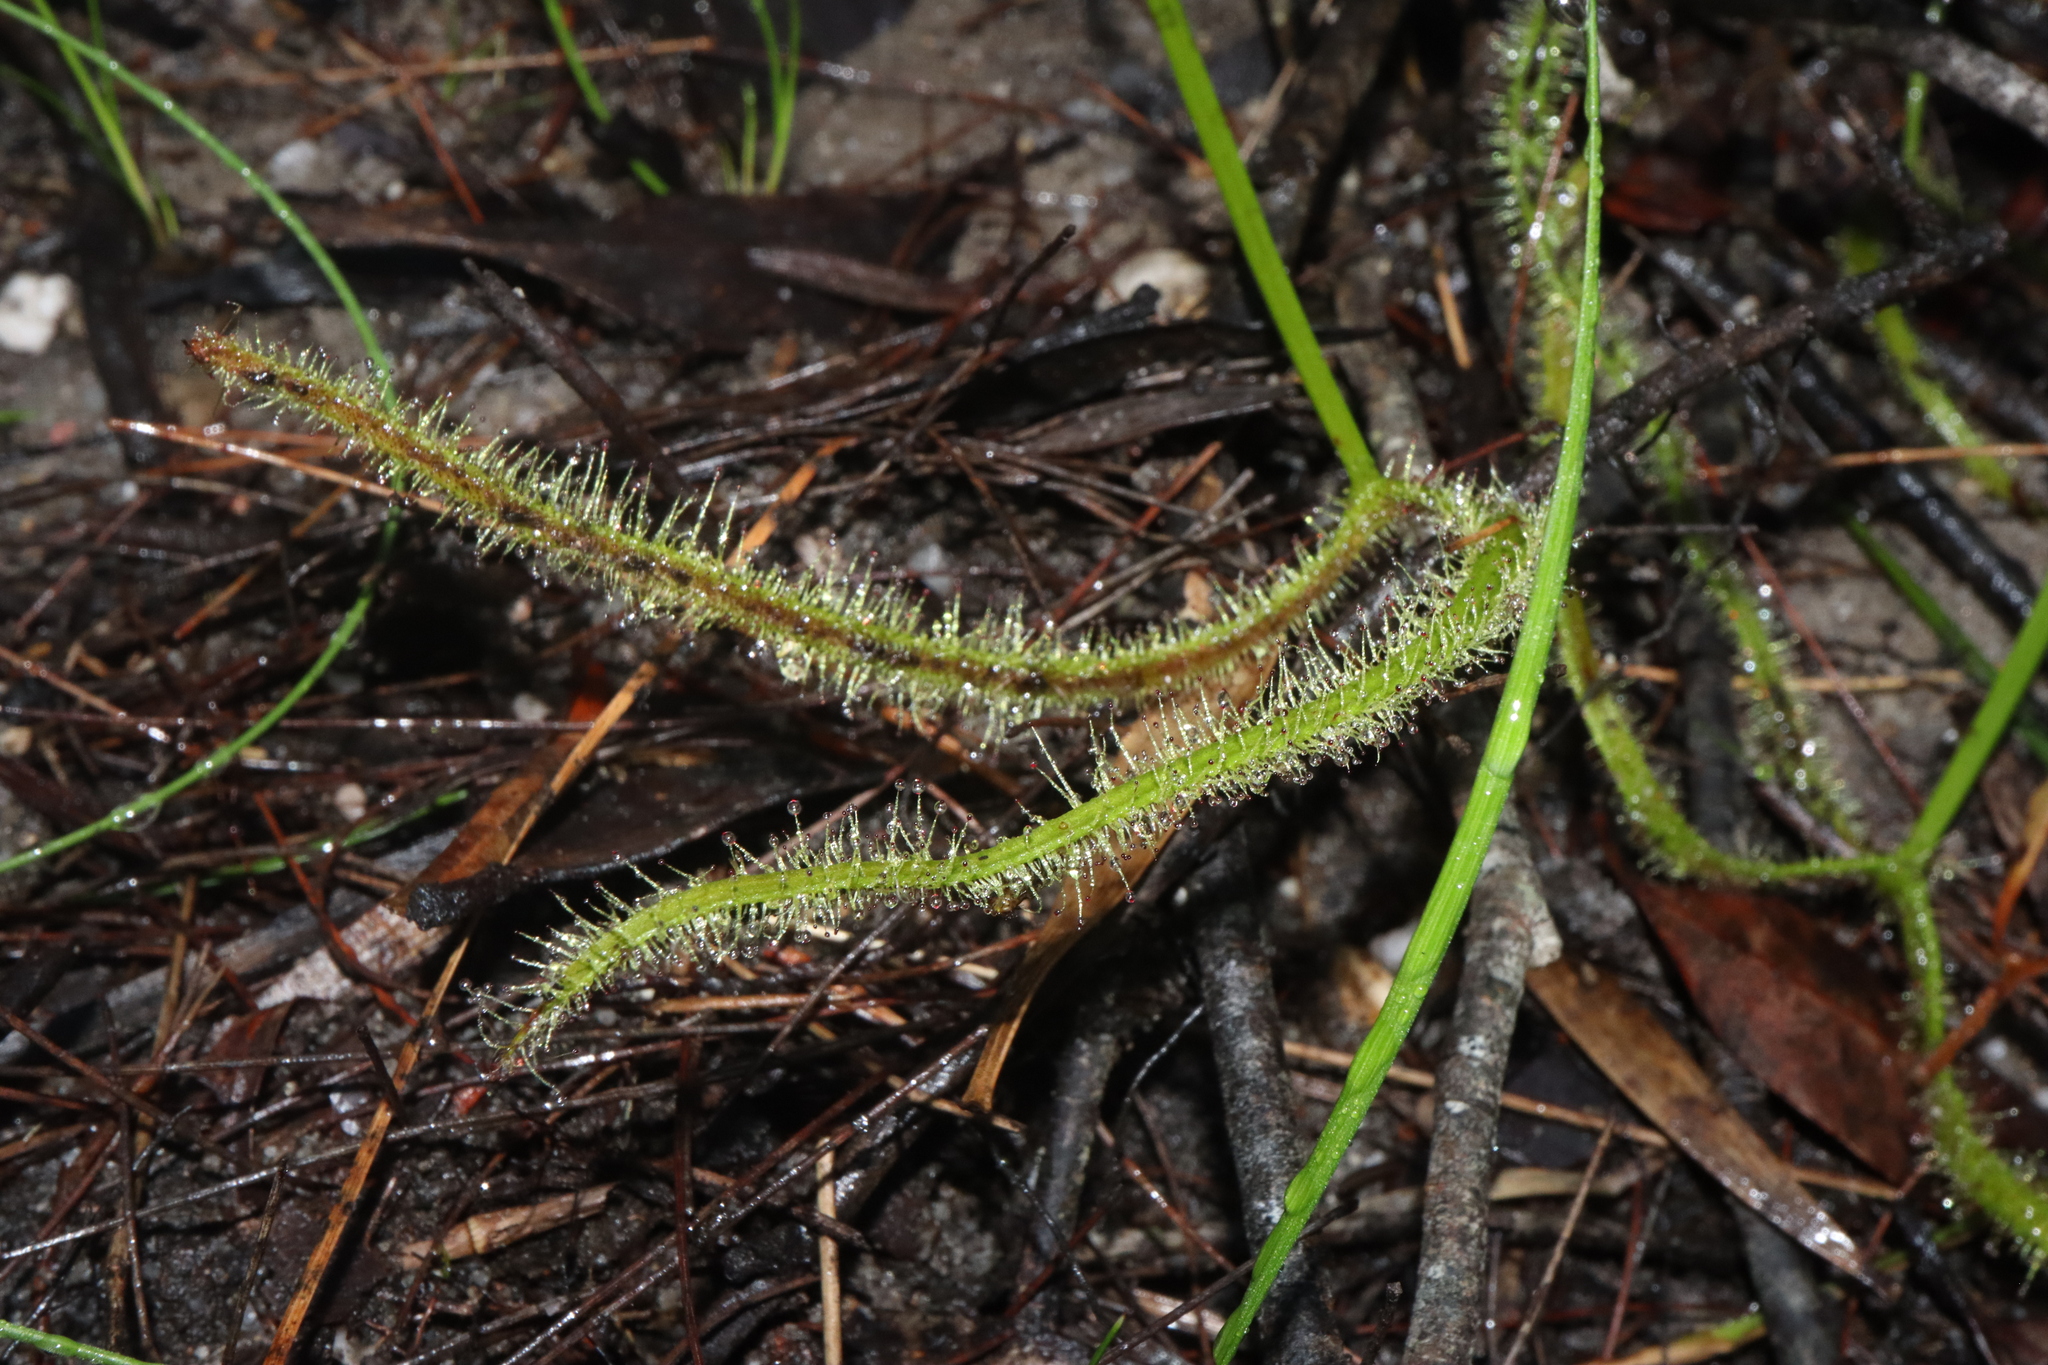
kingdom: Plantae
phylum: Tracheophyta
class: Magnoliopsida
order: Caryophyllales
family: Droseraceae
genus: Drosera
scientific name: Drosera binata
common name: Forked sundew
